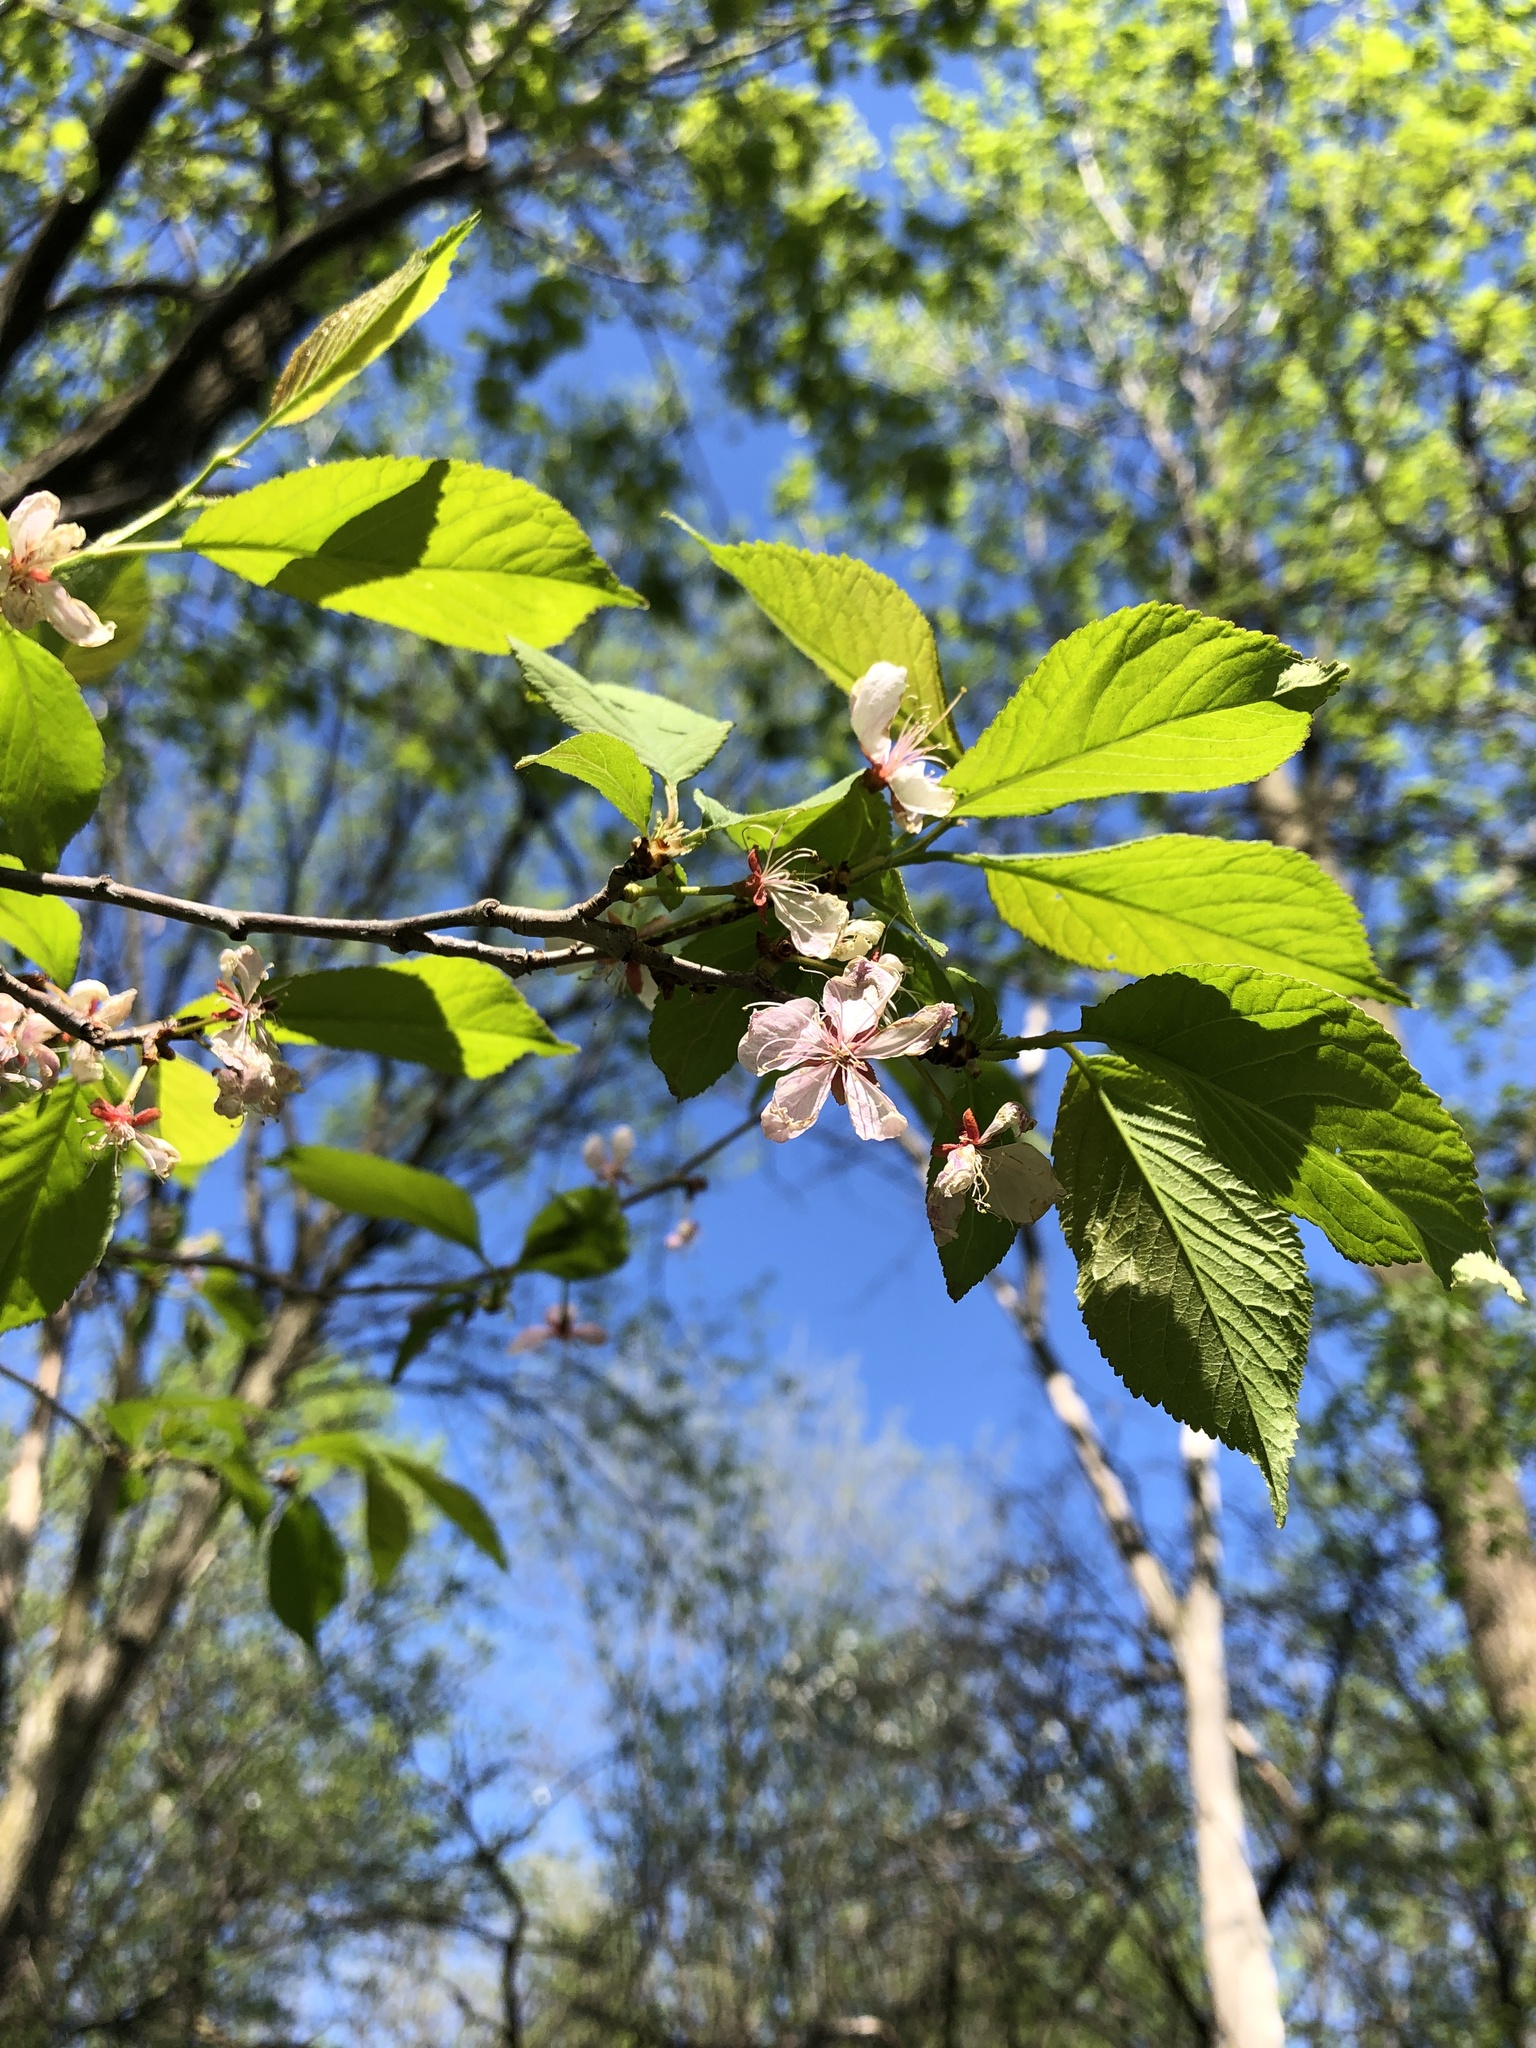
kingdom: Plantae
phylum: Tracheophyta
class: Magnoliopsida
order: Rosales
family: Rosaceae
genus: Prunus
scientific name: Prunus nigra
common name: Black plum
